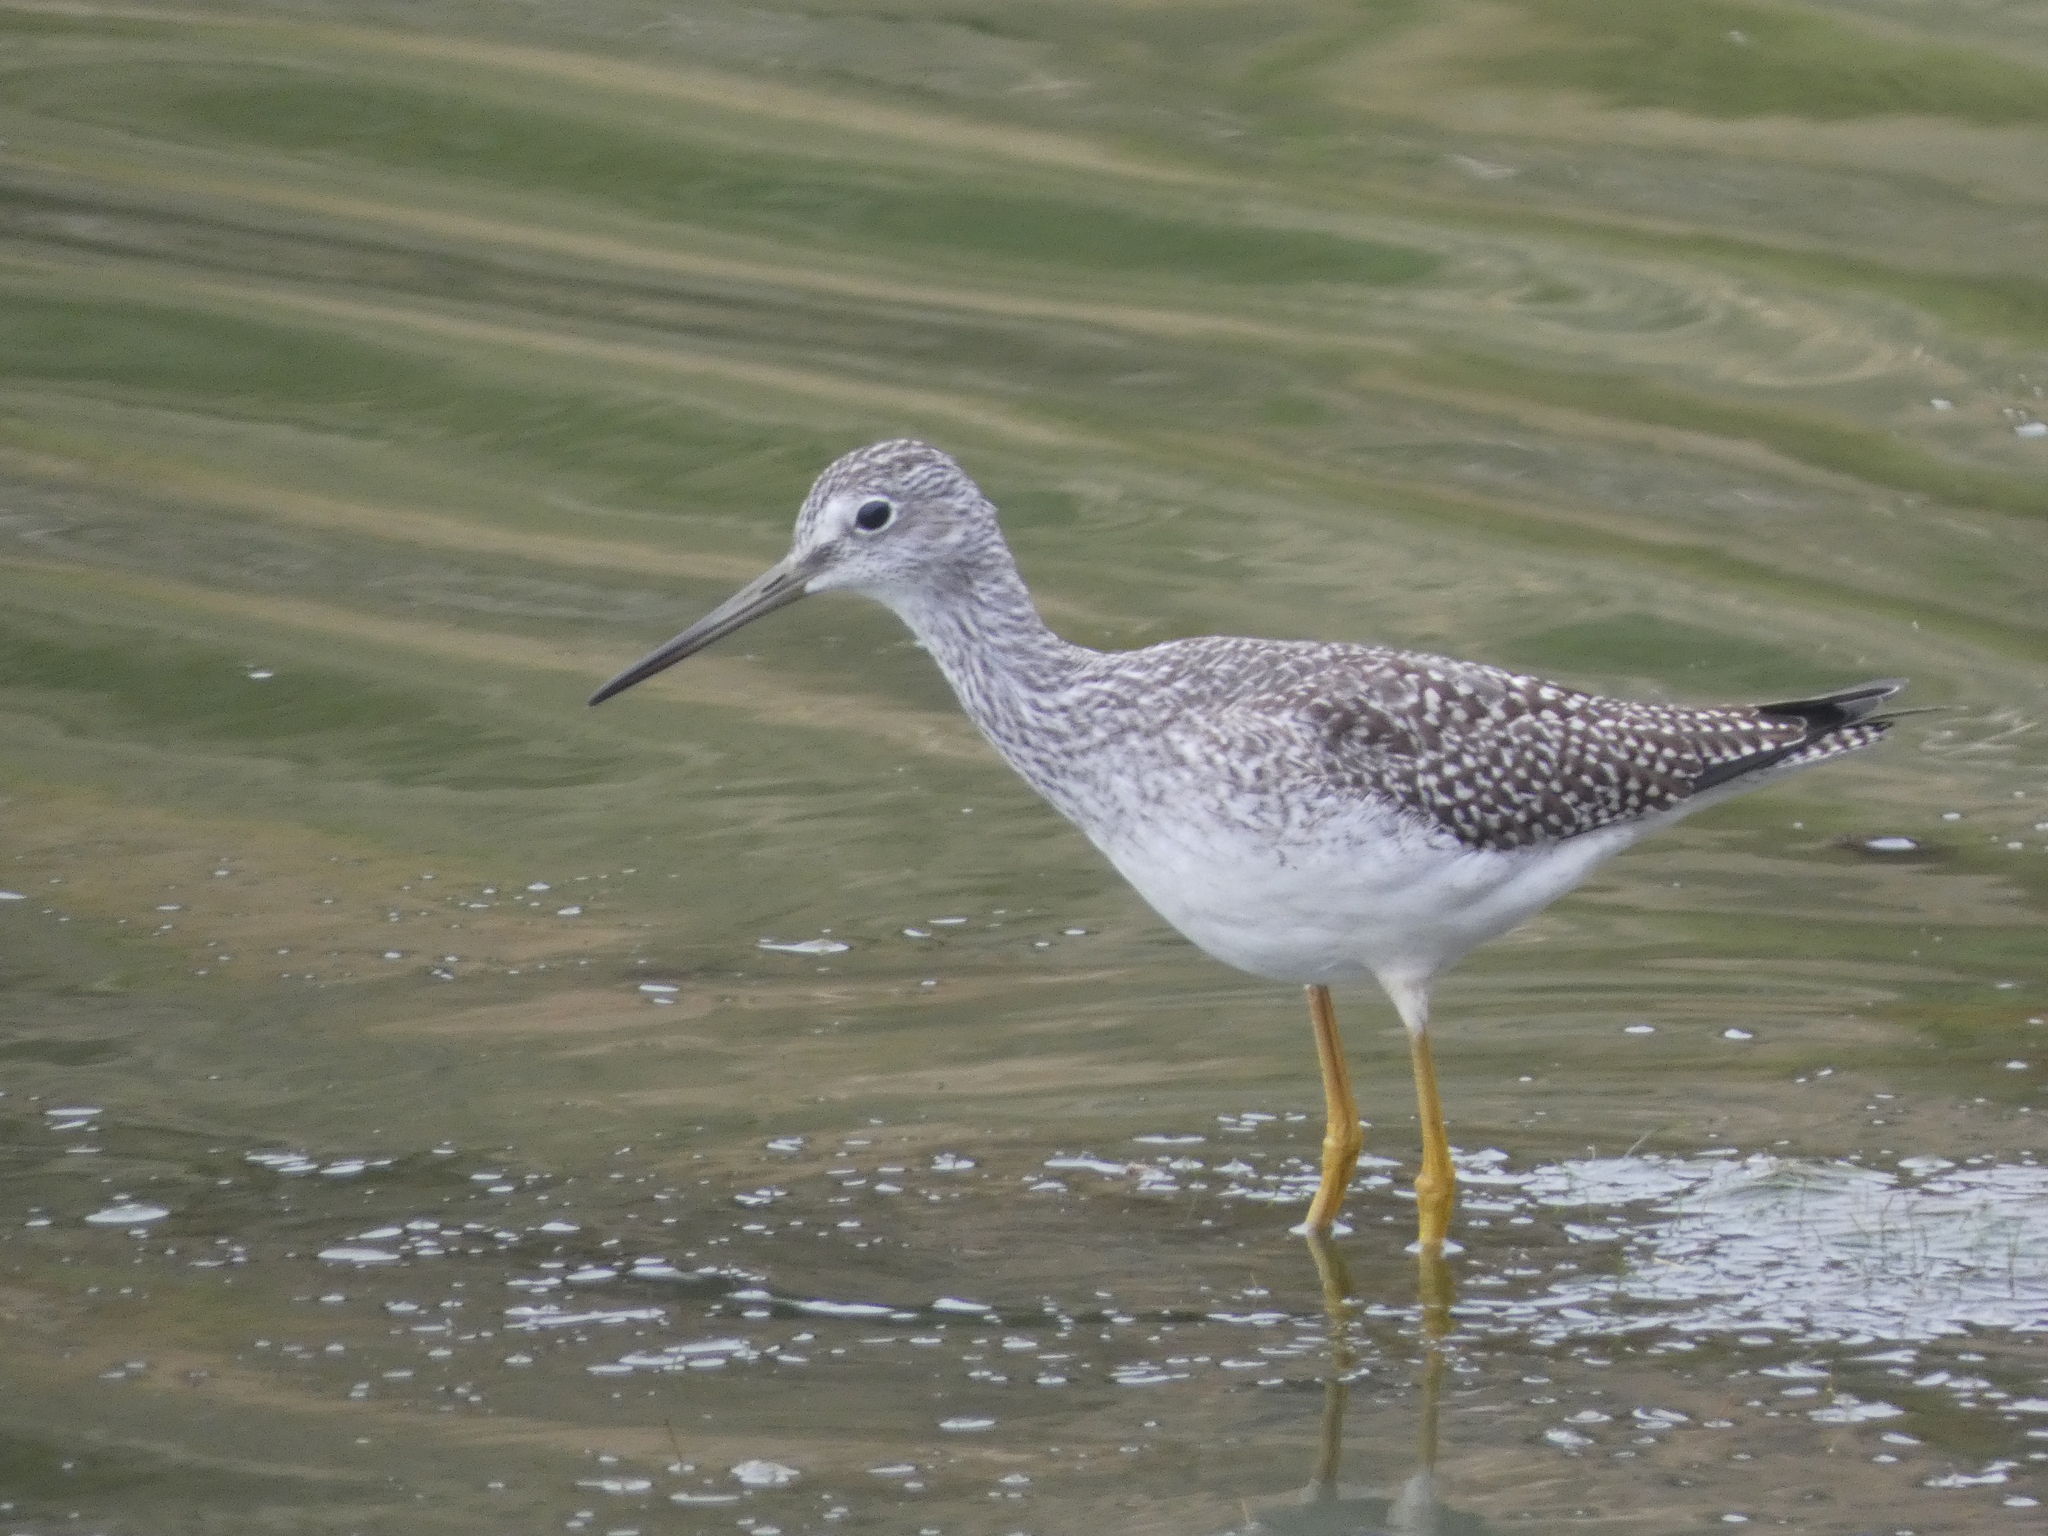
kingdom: Animalia
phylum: Chordata
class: Aves
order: Charadriiformes
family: Scolopacidae
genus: Tringa
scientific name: Tringa melanoleuca
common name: Greater yellowlegs
